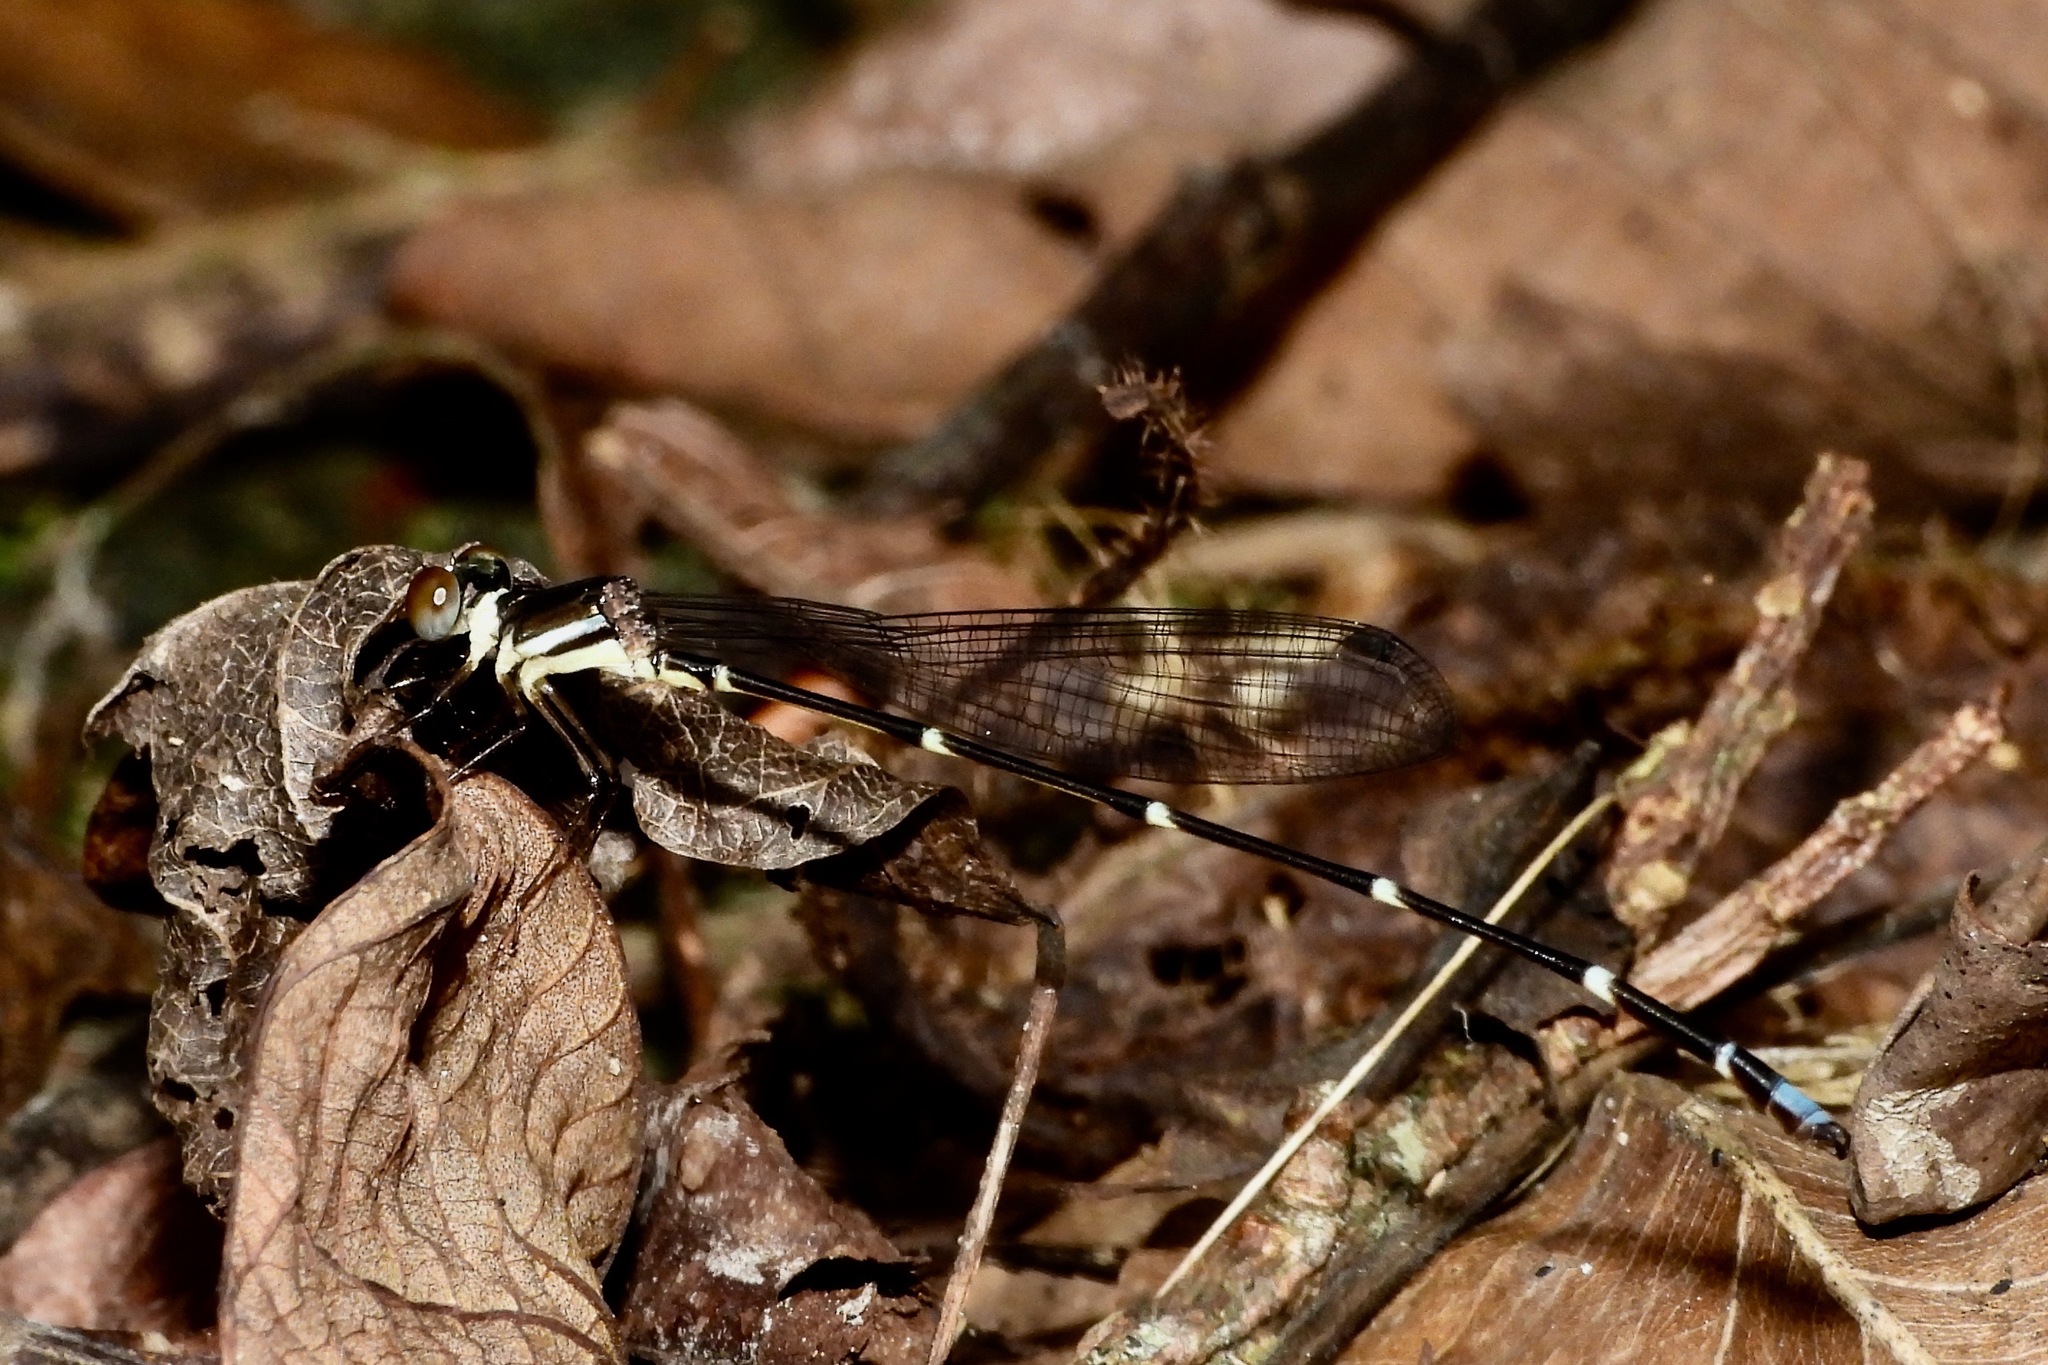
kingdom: Animalia
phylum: Arthropoda
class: Insecta
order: Odonata
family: Platystictidae
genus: Ceylonosticta
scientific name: Ceylonosticta adami
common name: Adam’s shadowdamsel
